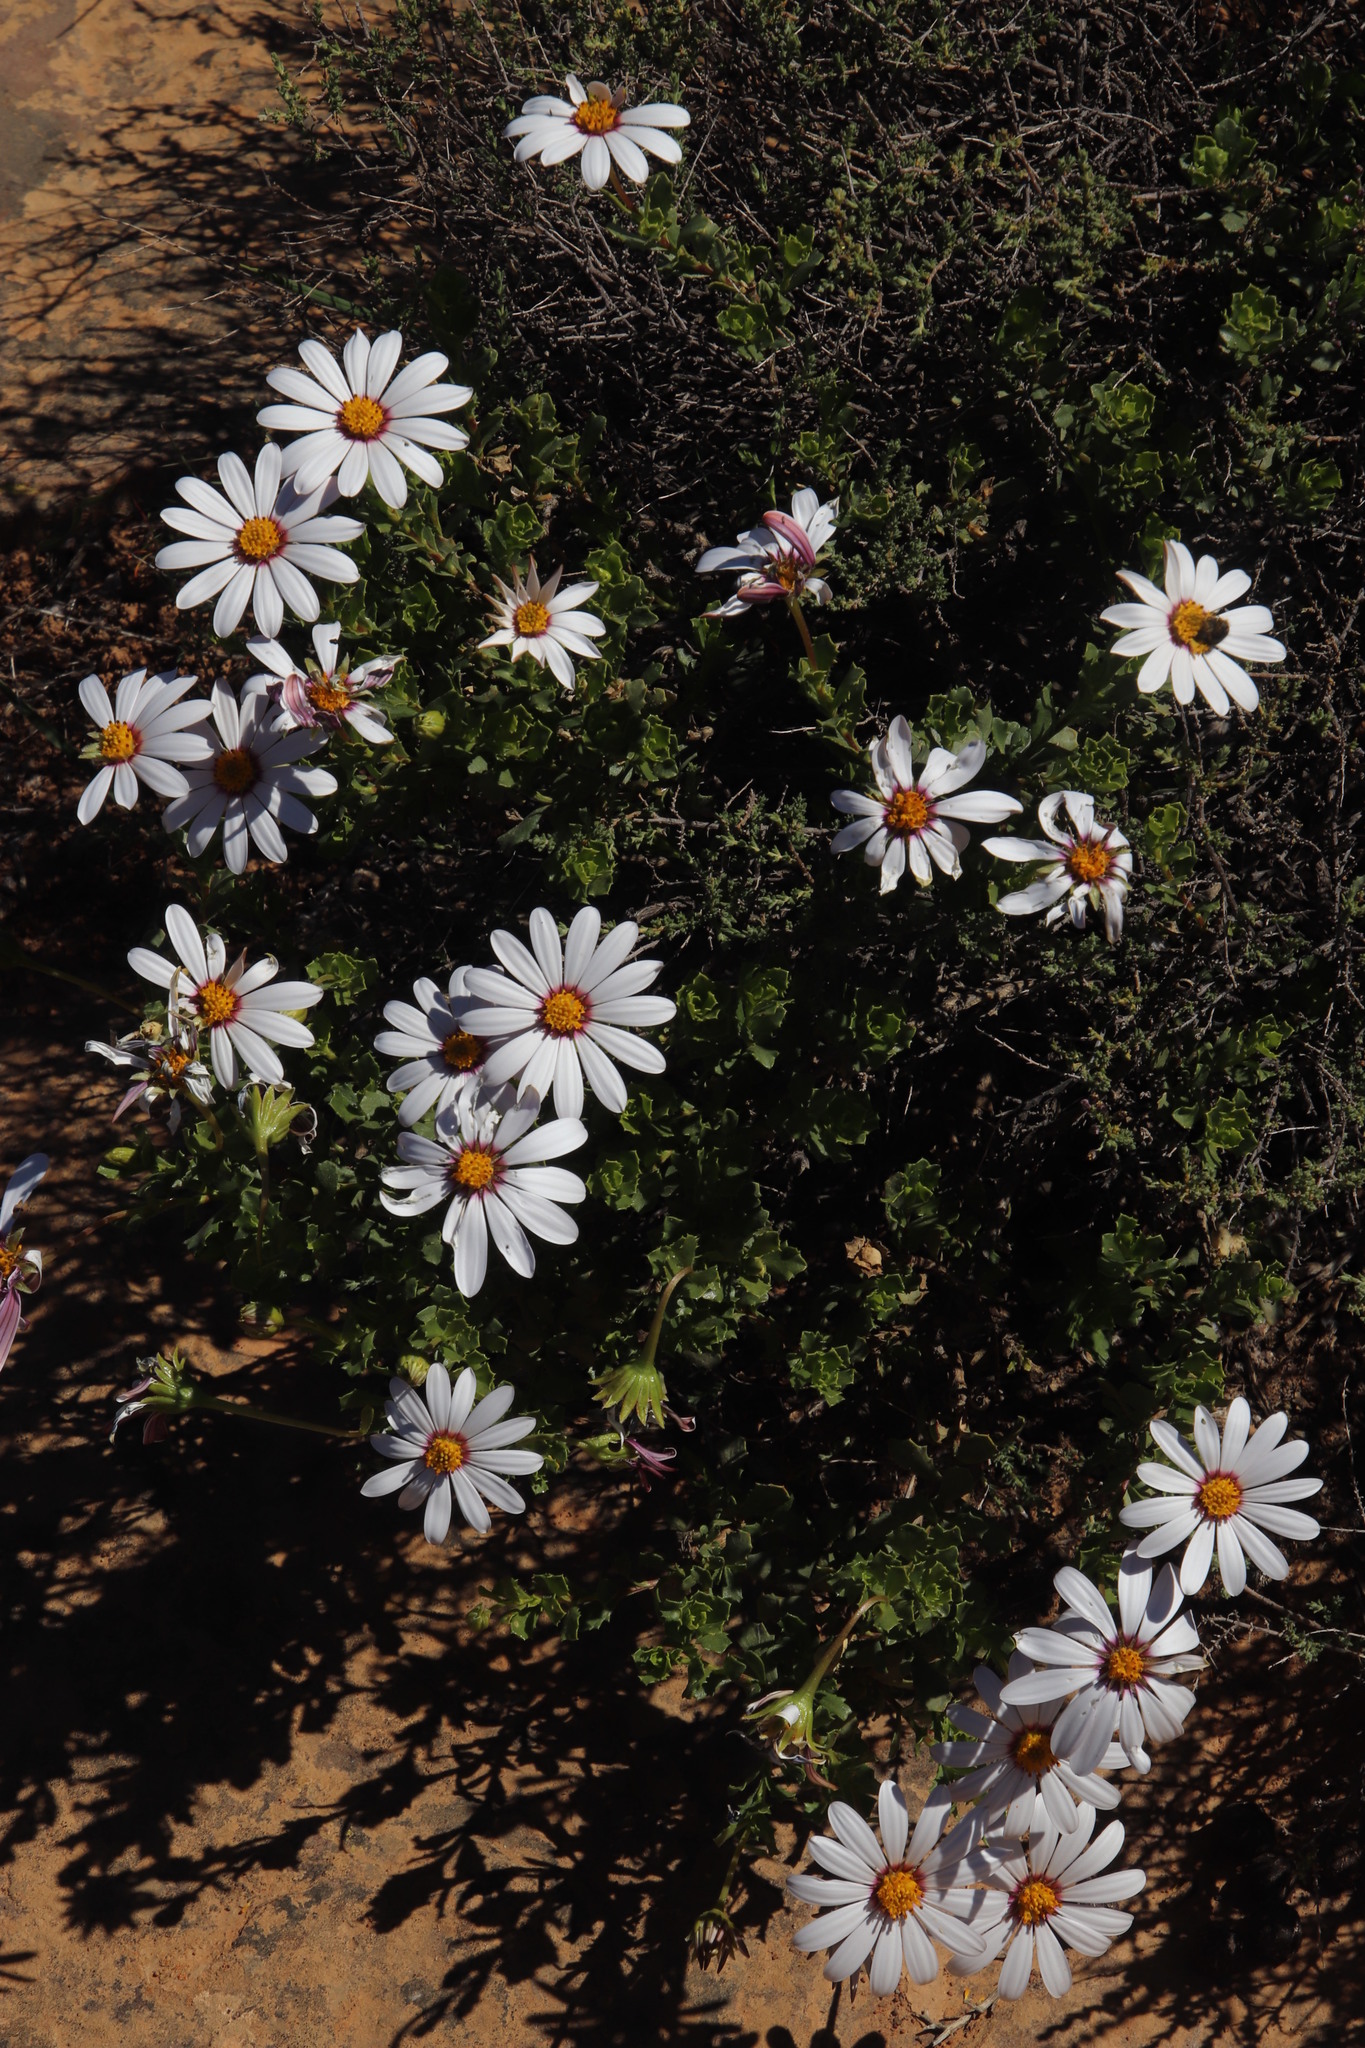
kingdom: Plantae
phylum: Tracheophyta
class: Magnoliopsida
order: Asterales
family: Asteraceae
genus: Dimorphotheca
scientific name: Dimorphotheca cuneata
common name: Daisy
